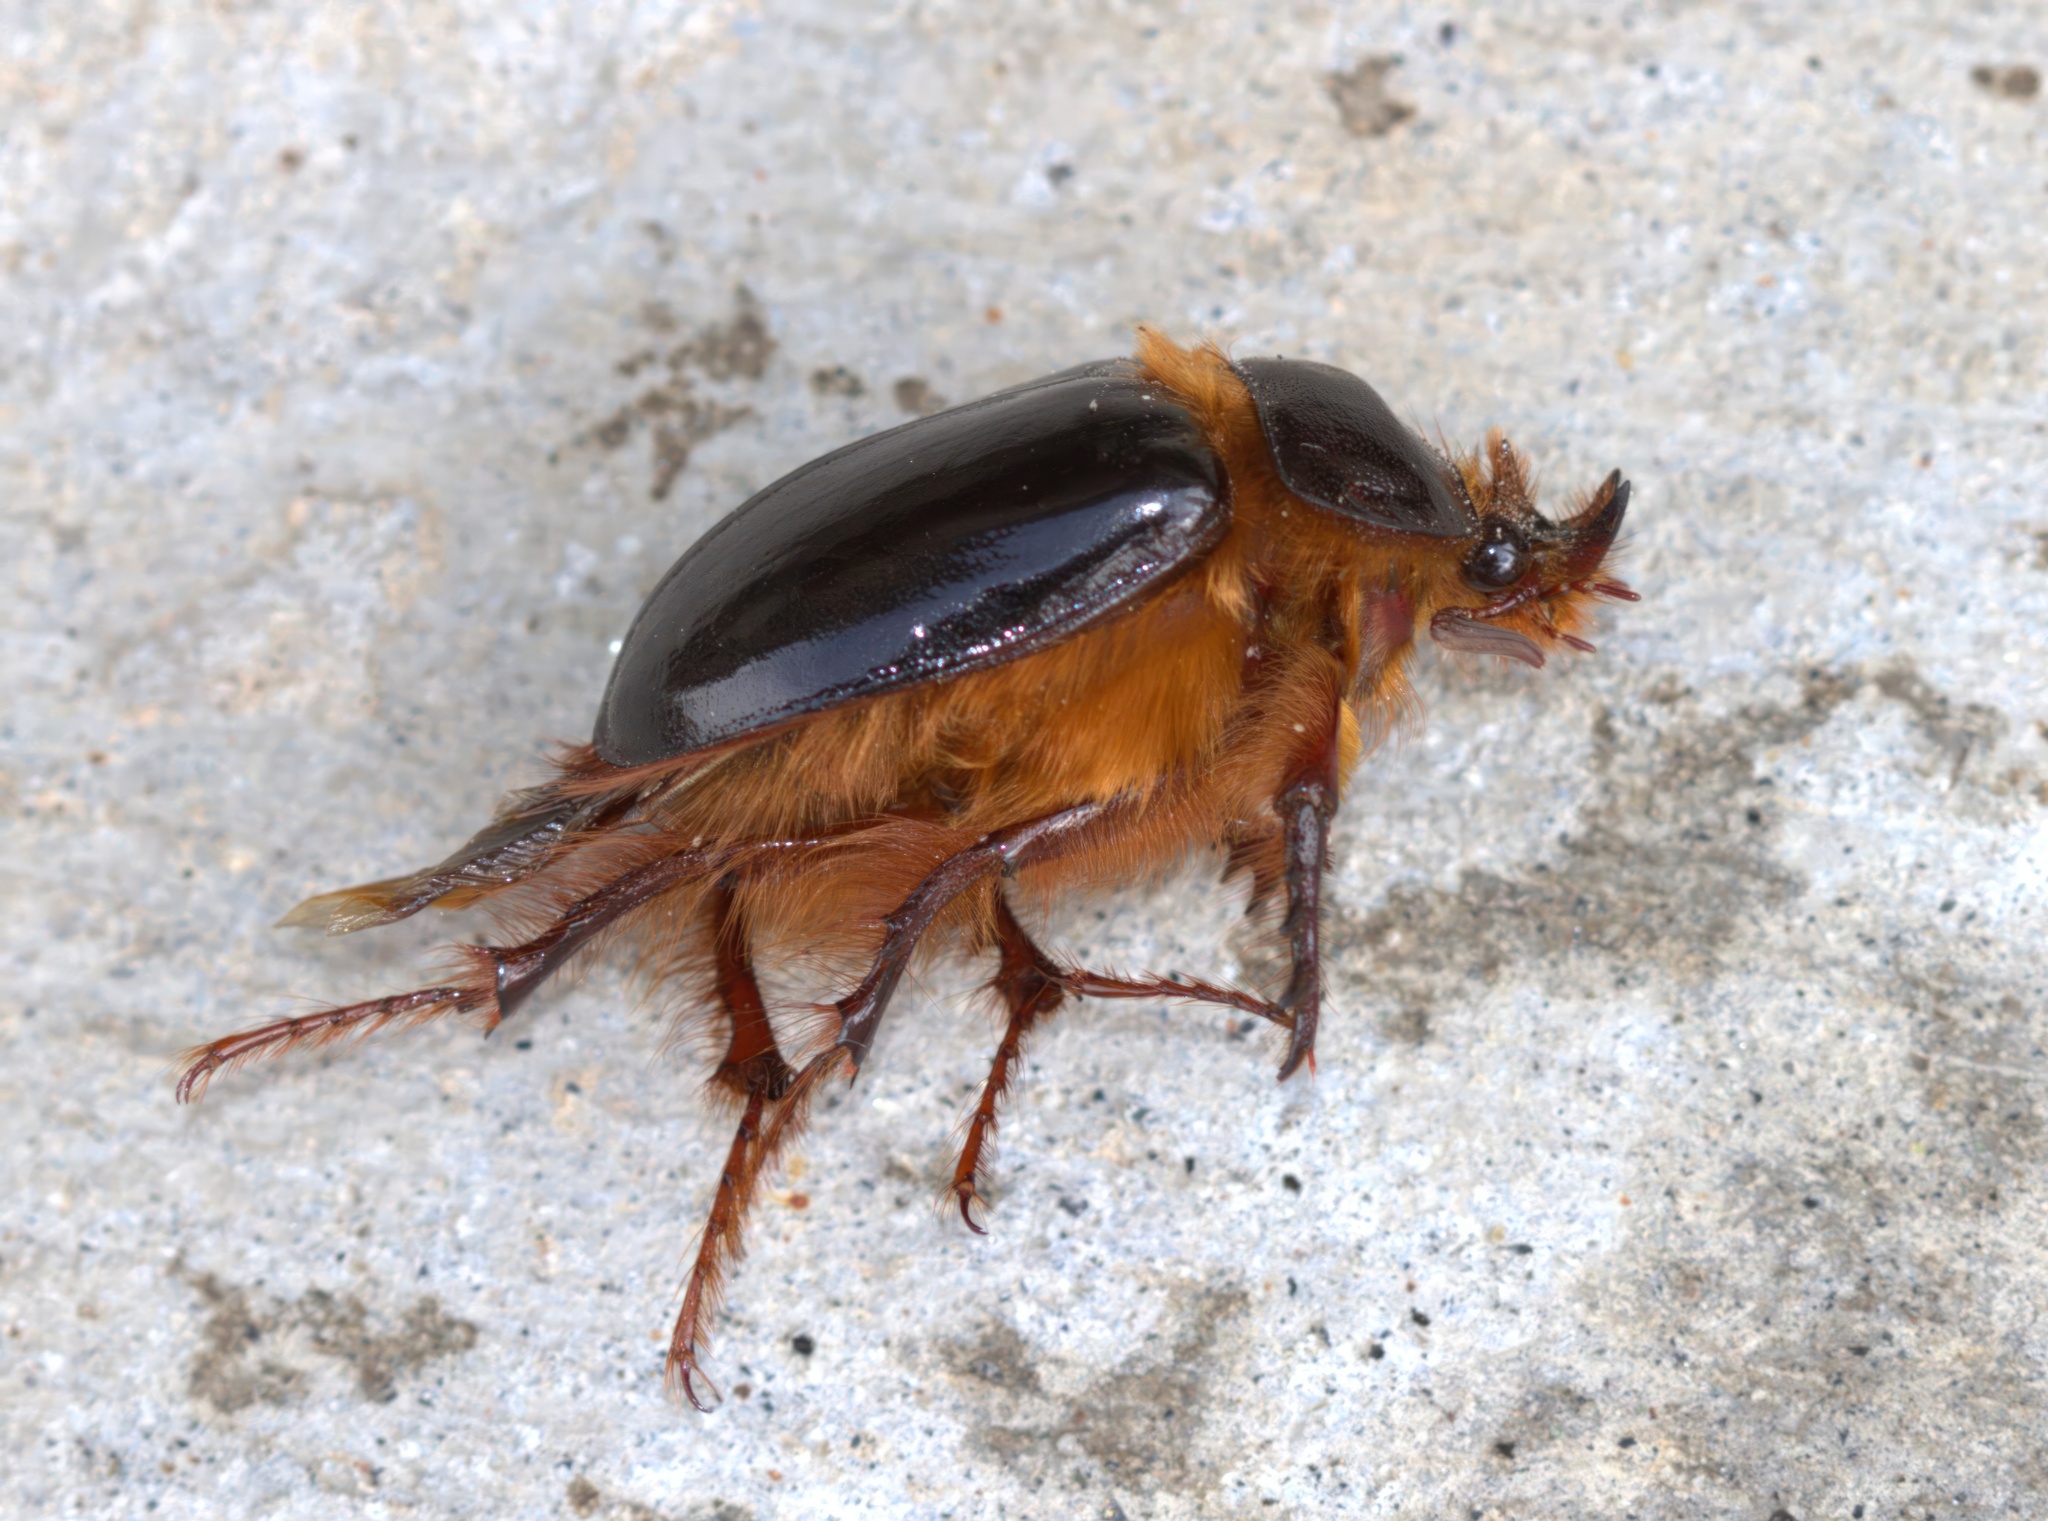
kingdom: Animalia
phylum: Arthropoda
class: Insecta
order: Coleoptera
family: Pleocomidae
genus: Pleocoma
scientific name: Pleocoma australis
